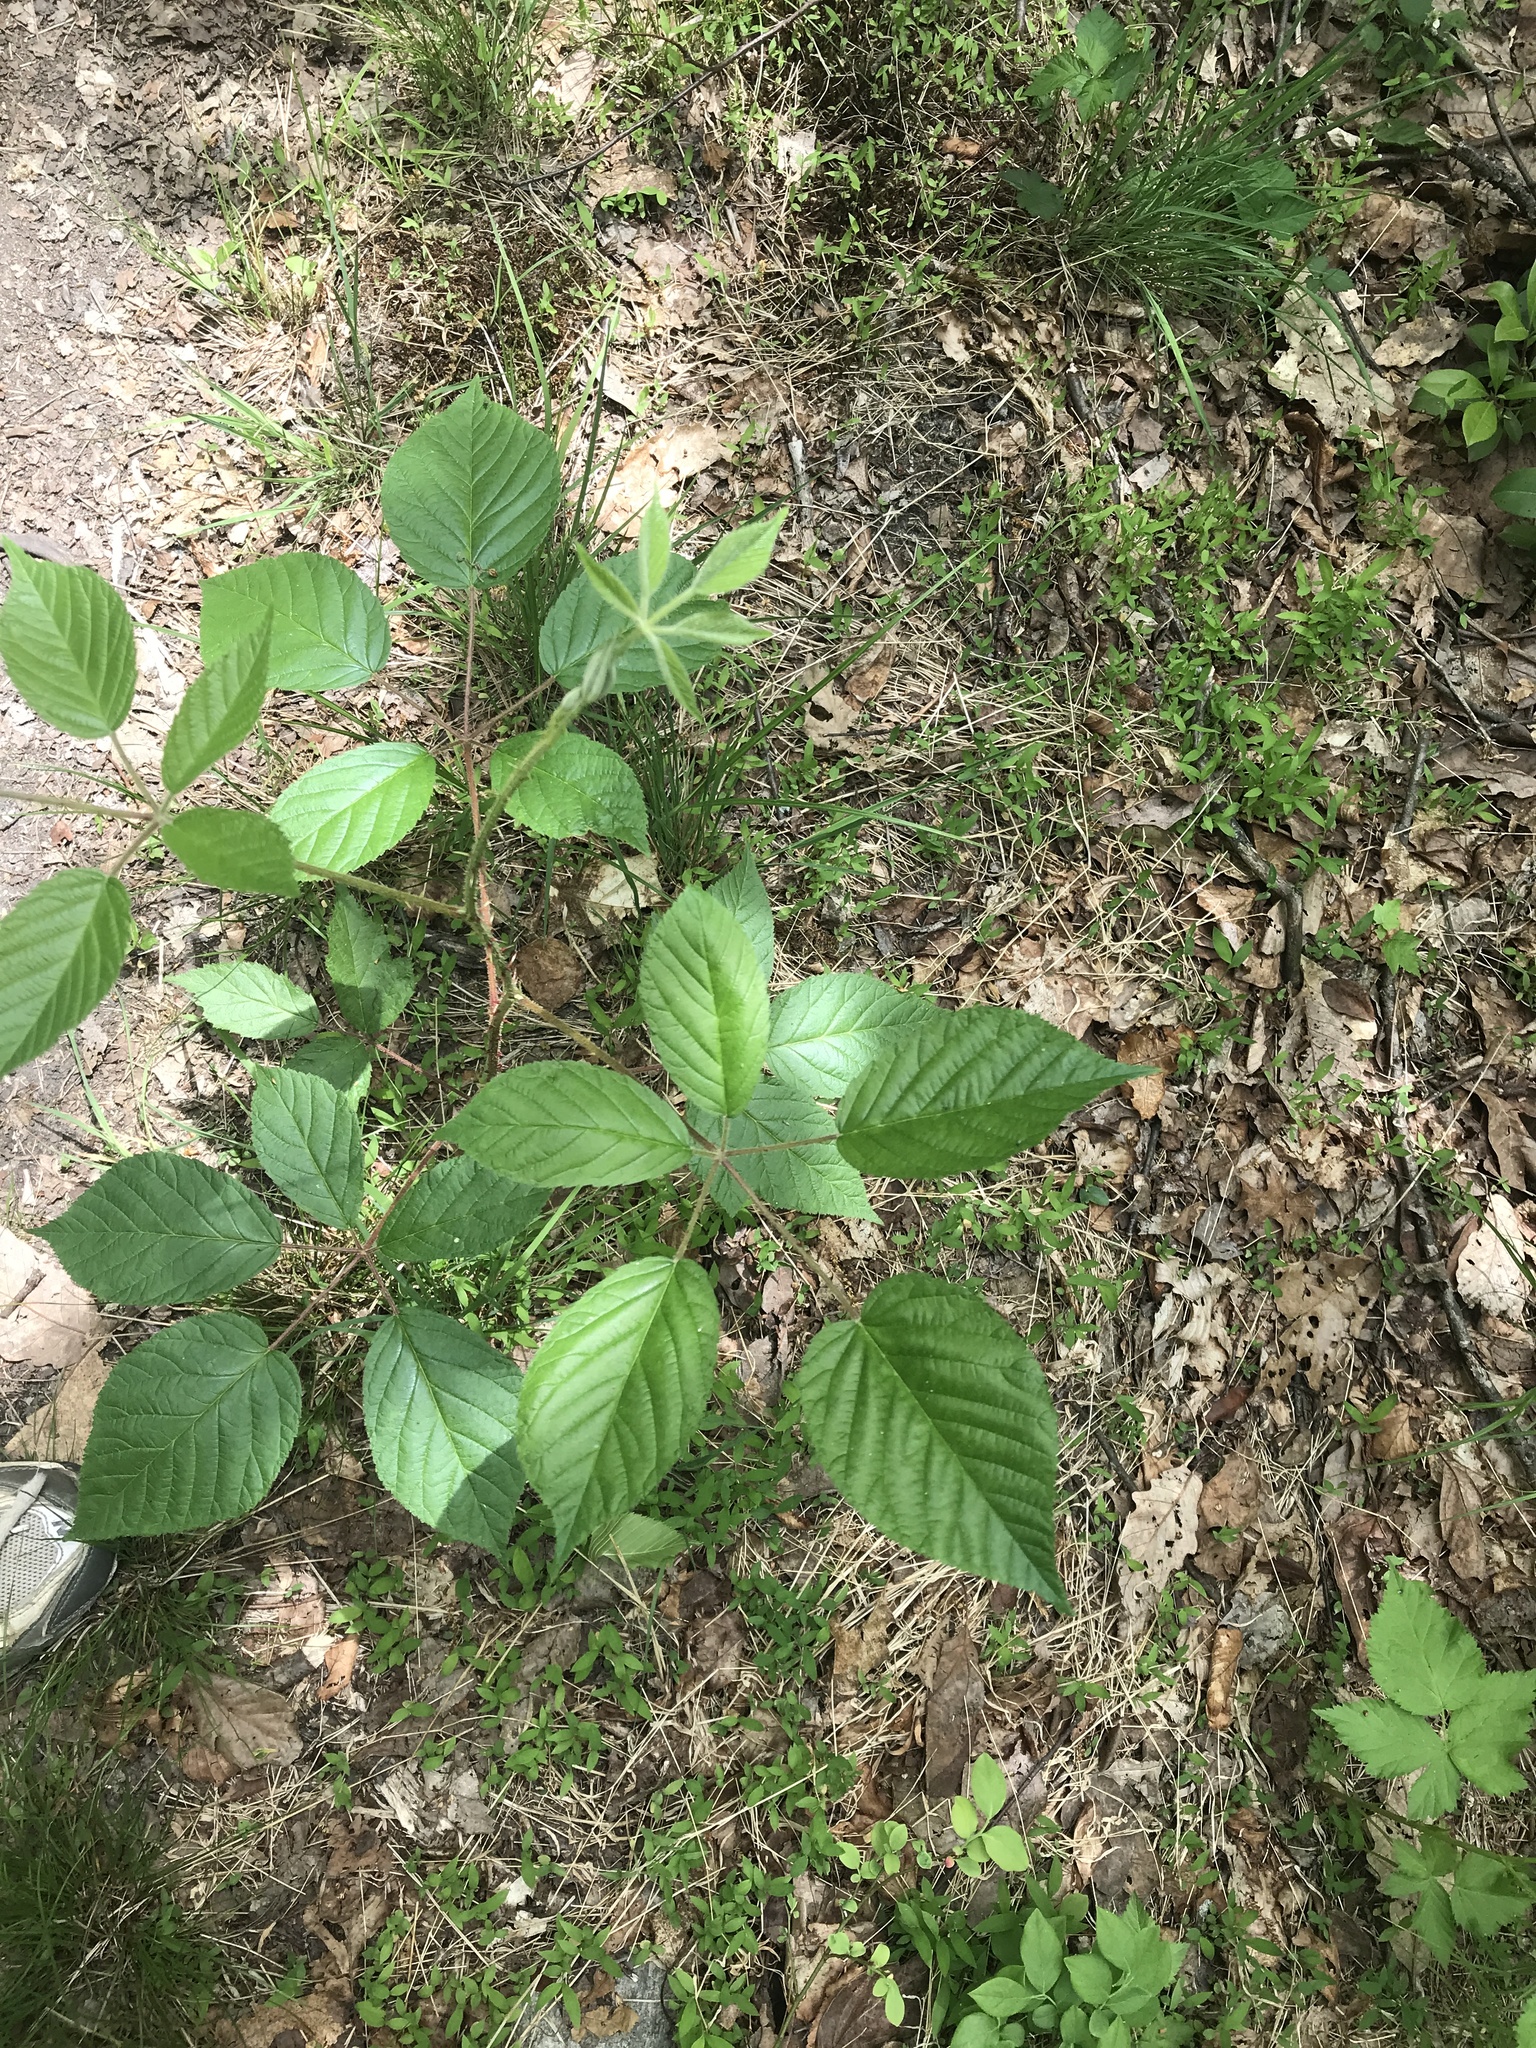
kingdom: Plantae
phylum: Tracheophyta
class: Magnoliopsida
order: Rosales
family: Rosaceae
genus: Rubus
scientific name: Rubus allegheniensis
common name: Allegheny blackberry
